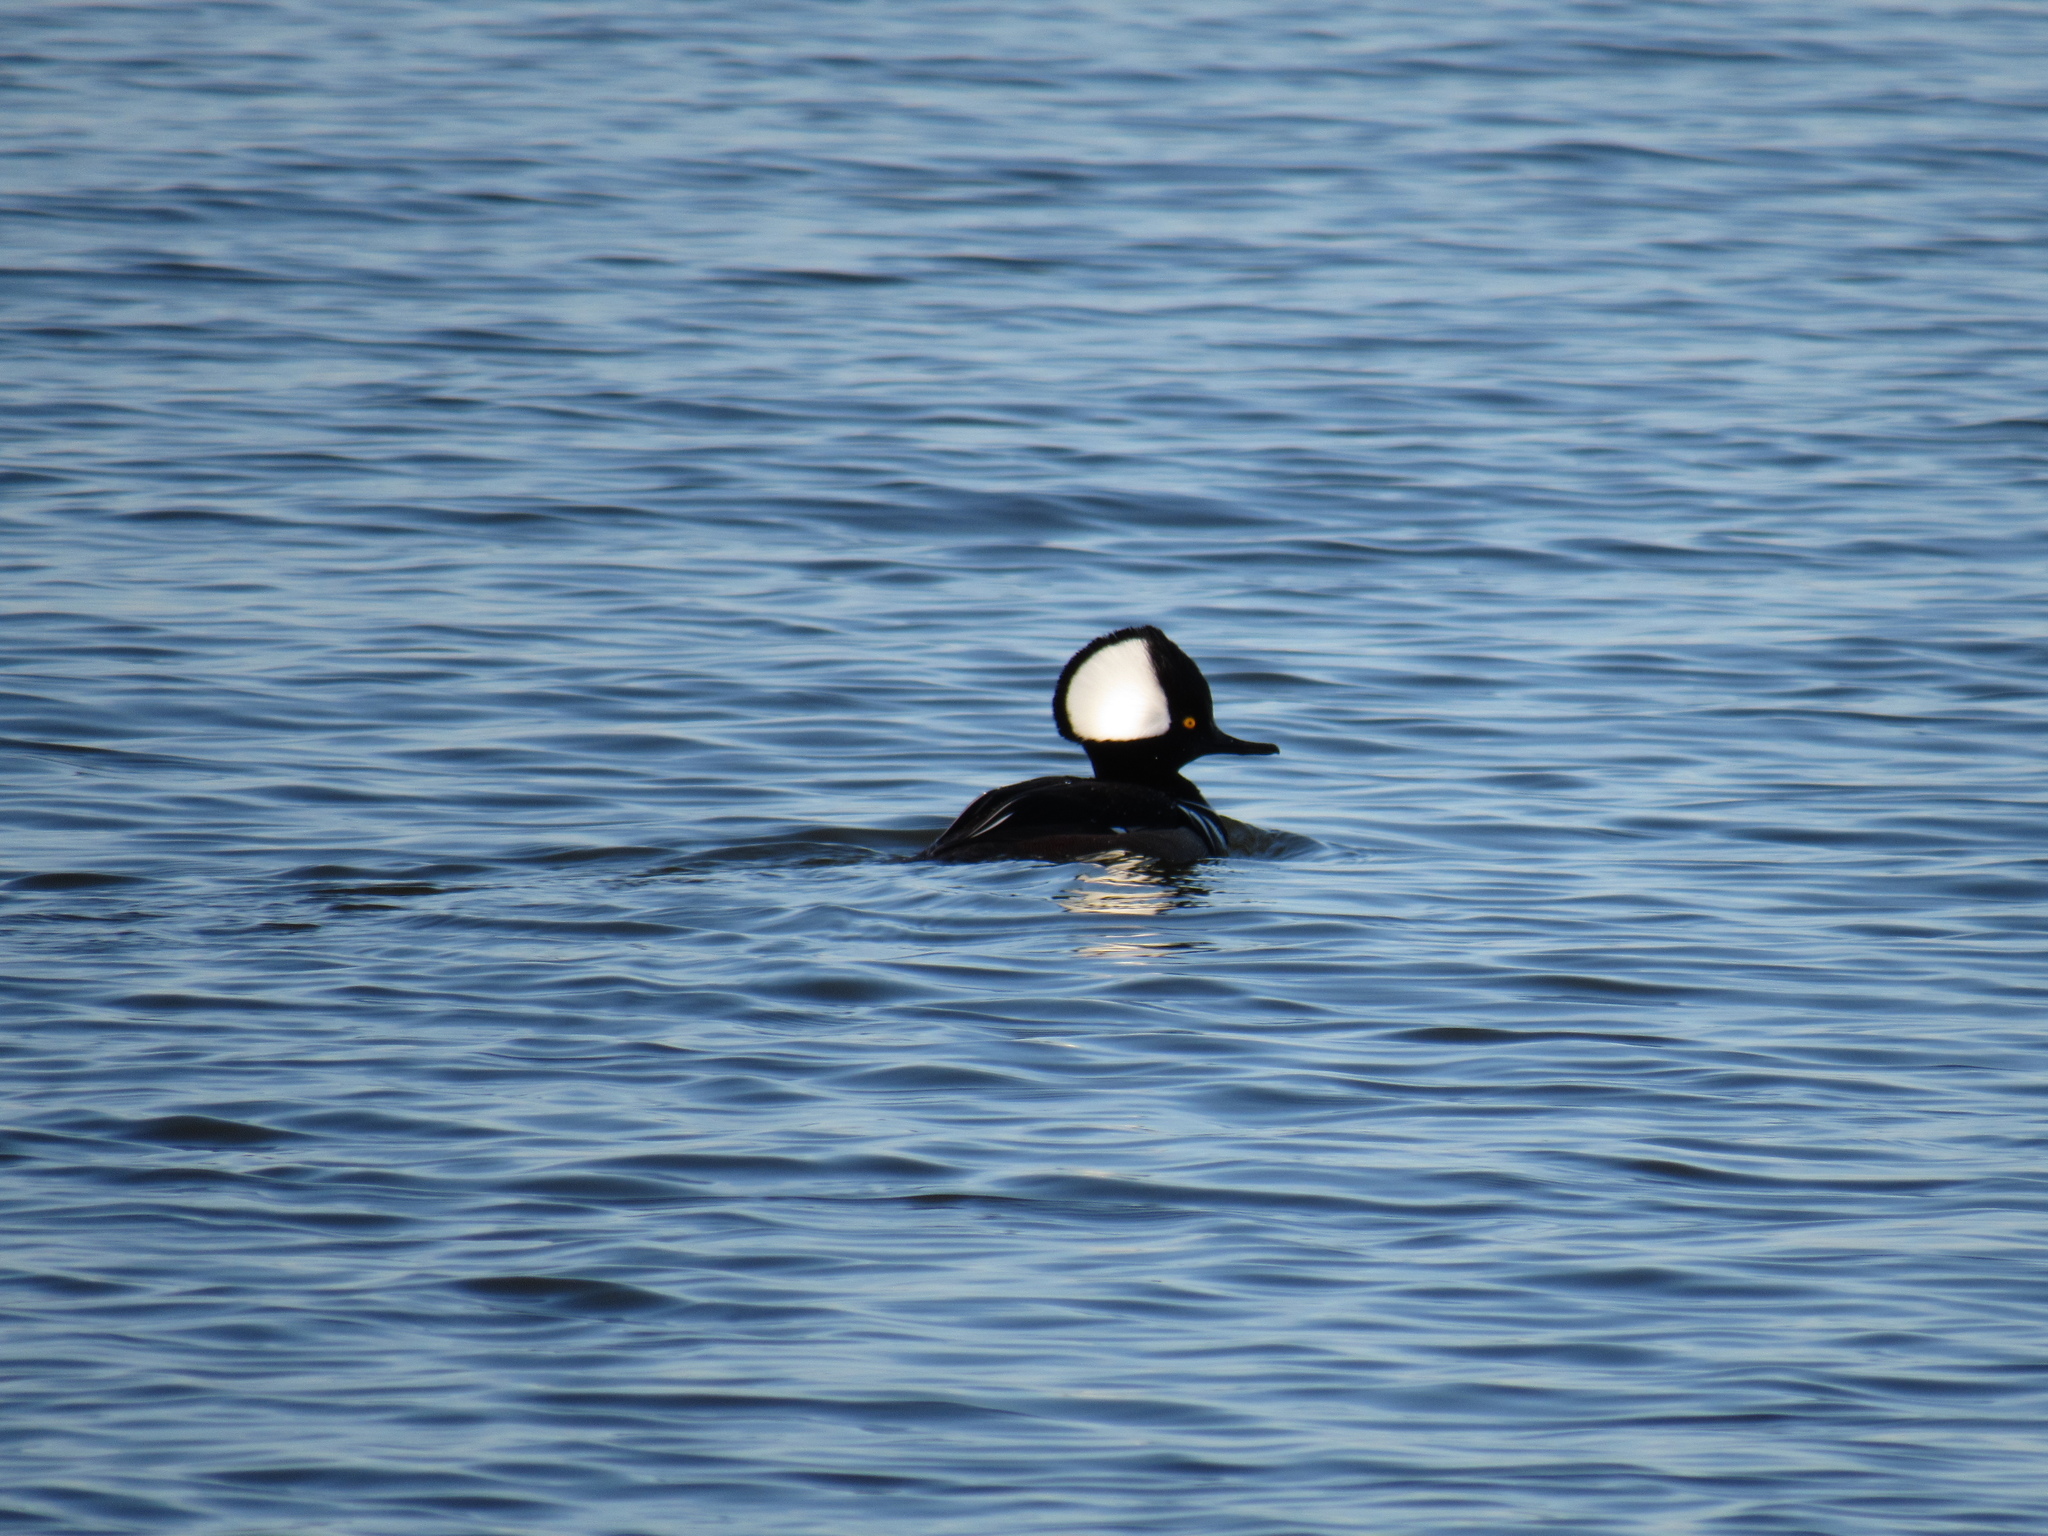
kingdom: Animalia
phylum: Chordata
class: Aves
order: Anseriformes
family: Anatidae
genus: Lophodytes
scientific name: Lophodytes cucullatus
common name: Hooded merganser
